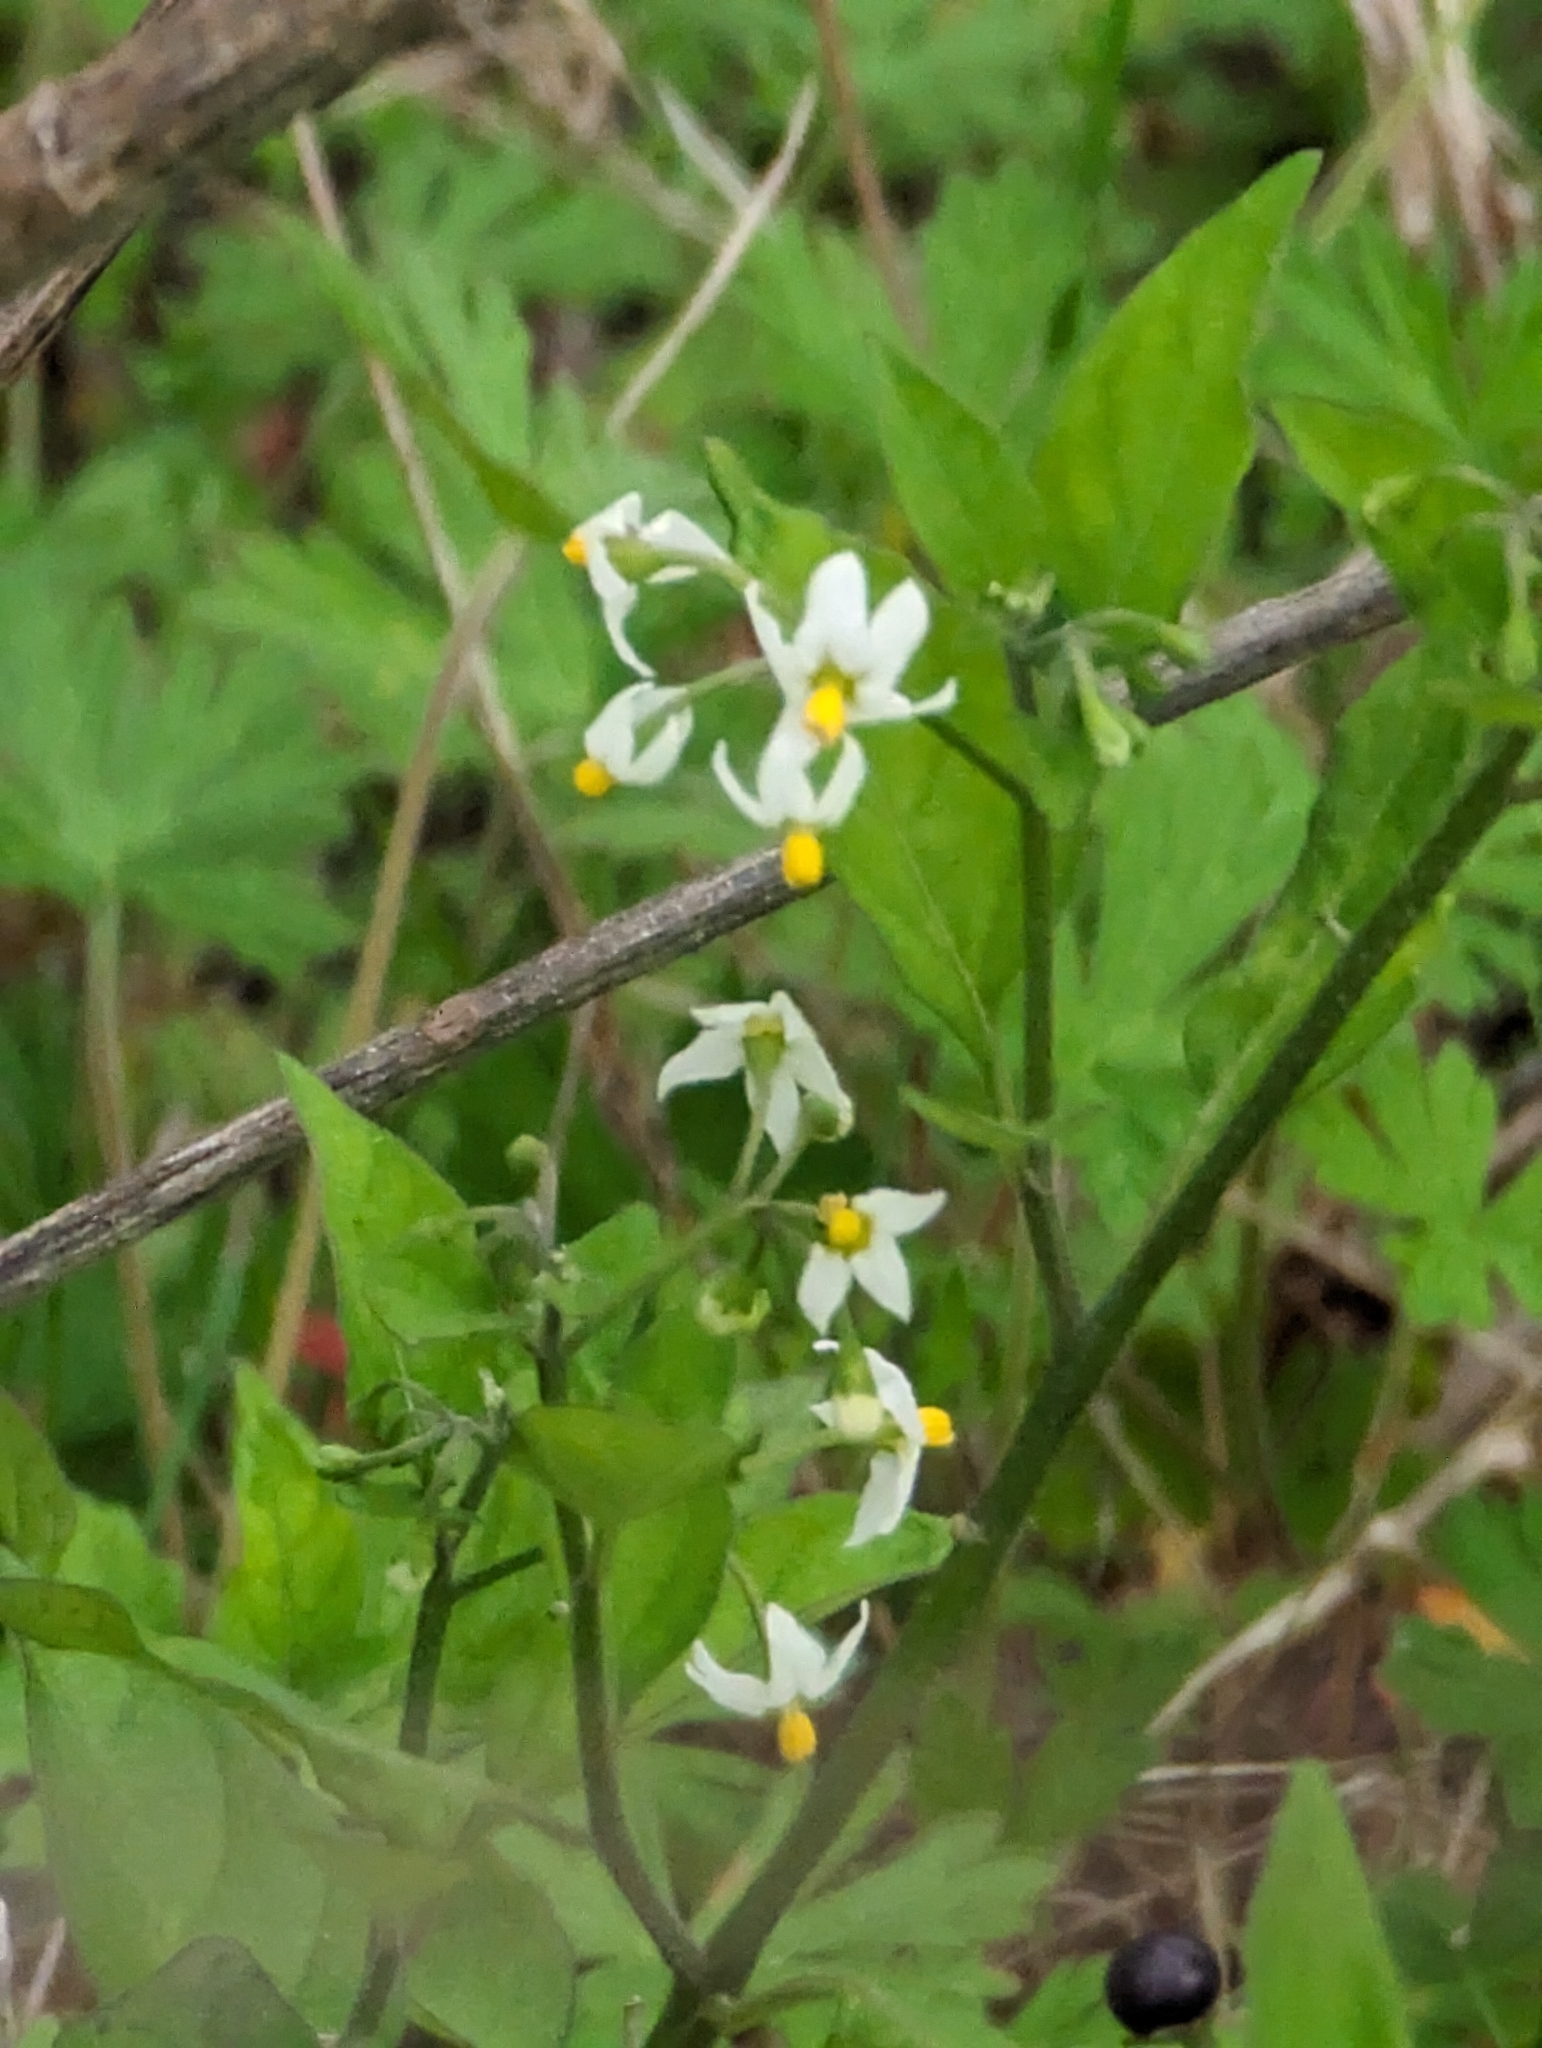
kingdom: Plantae
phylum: Tracheophyta
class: Magnoliopsida
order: Solanales
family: Solanaceae
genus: Solanum
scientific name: Solanum americanum
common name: American black nightshade
